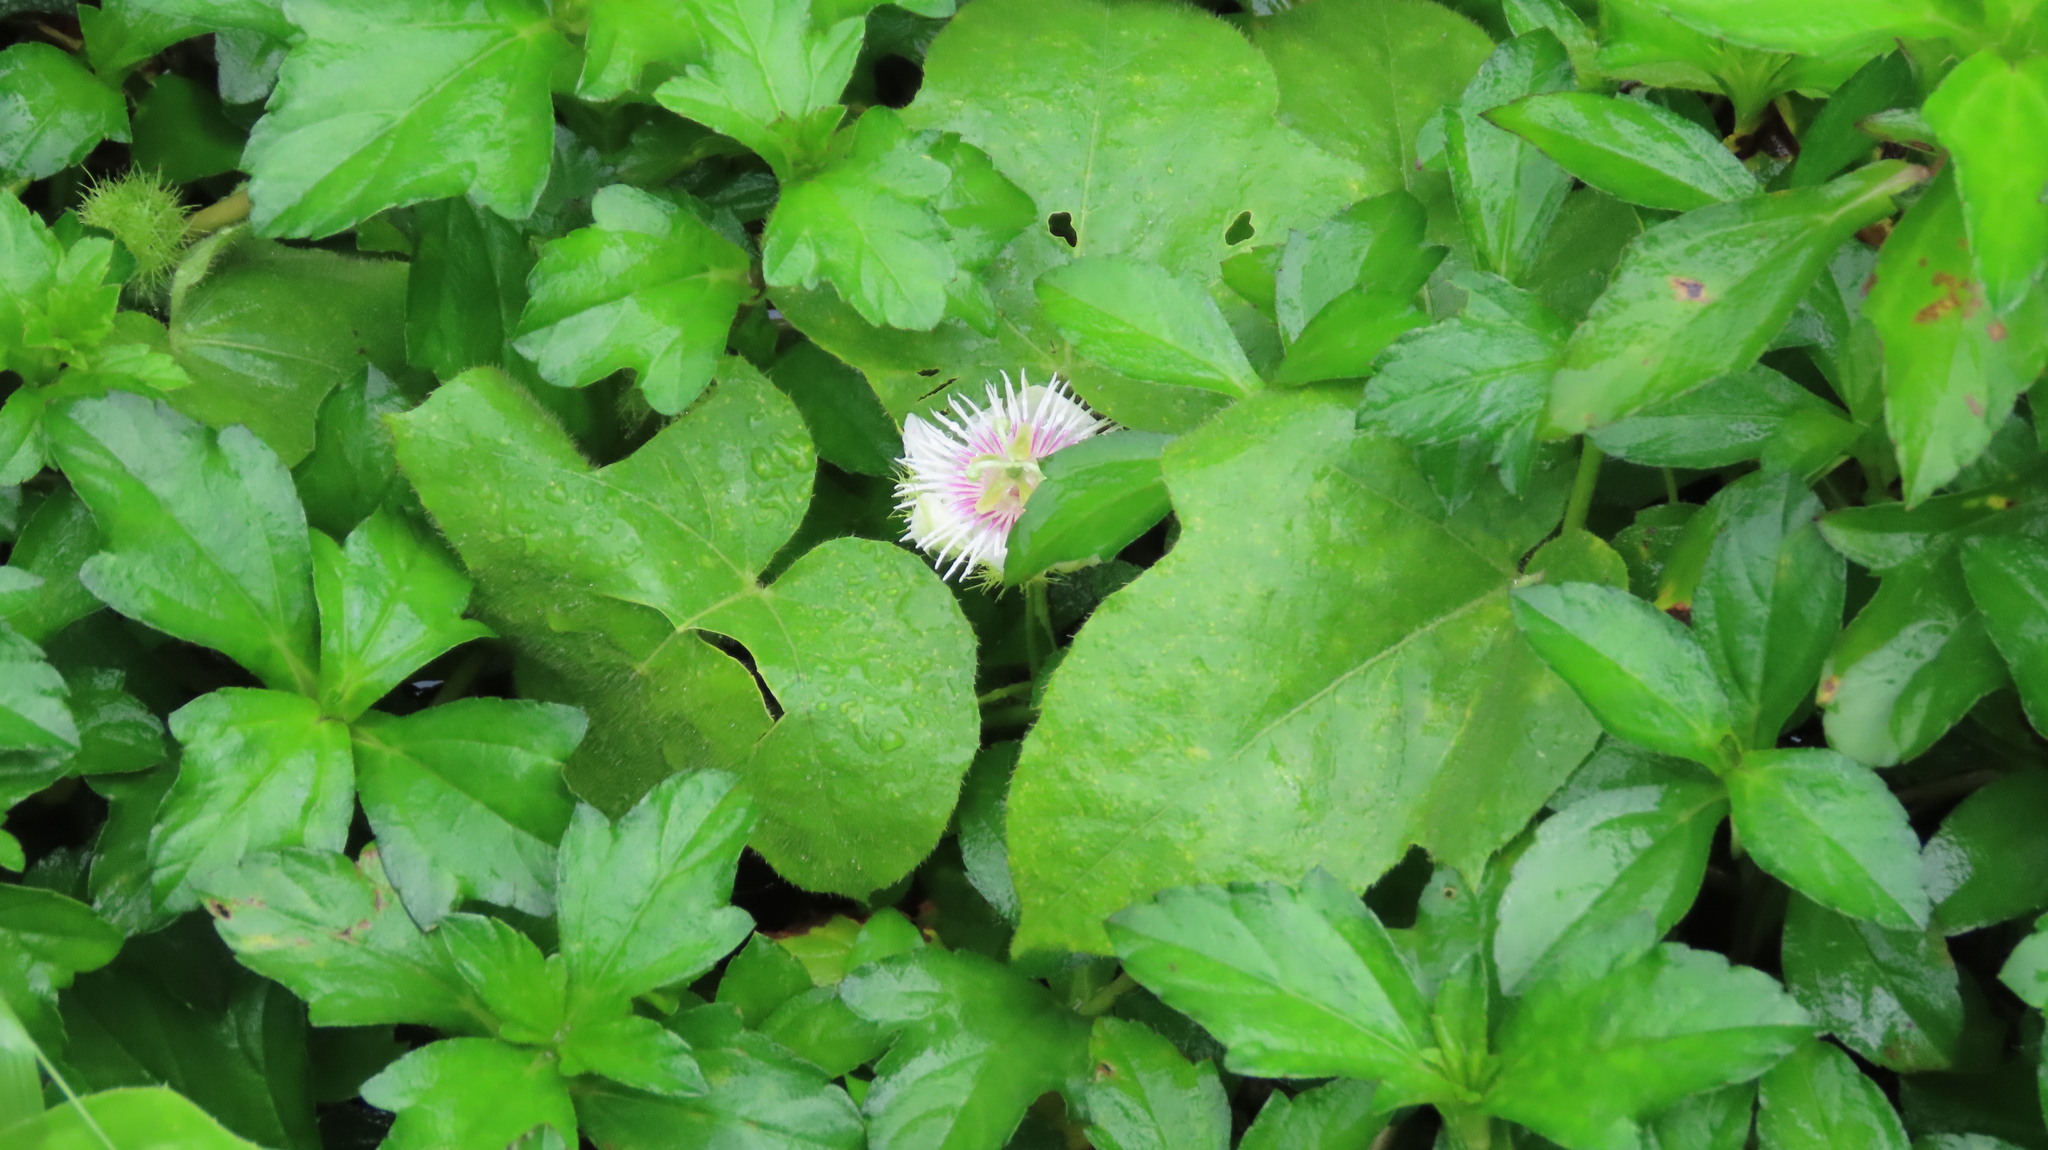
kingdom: Plantae
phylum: Tracheophyta
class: Magnoliopsida
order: Malpighiales
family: Passifloraceae
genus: Passiflora
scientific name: Passiflora vesicaria
